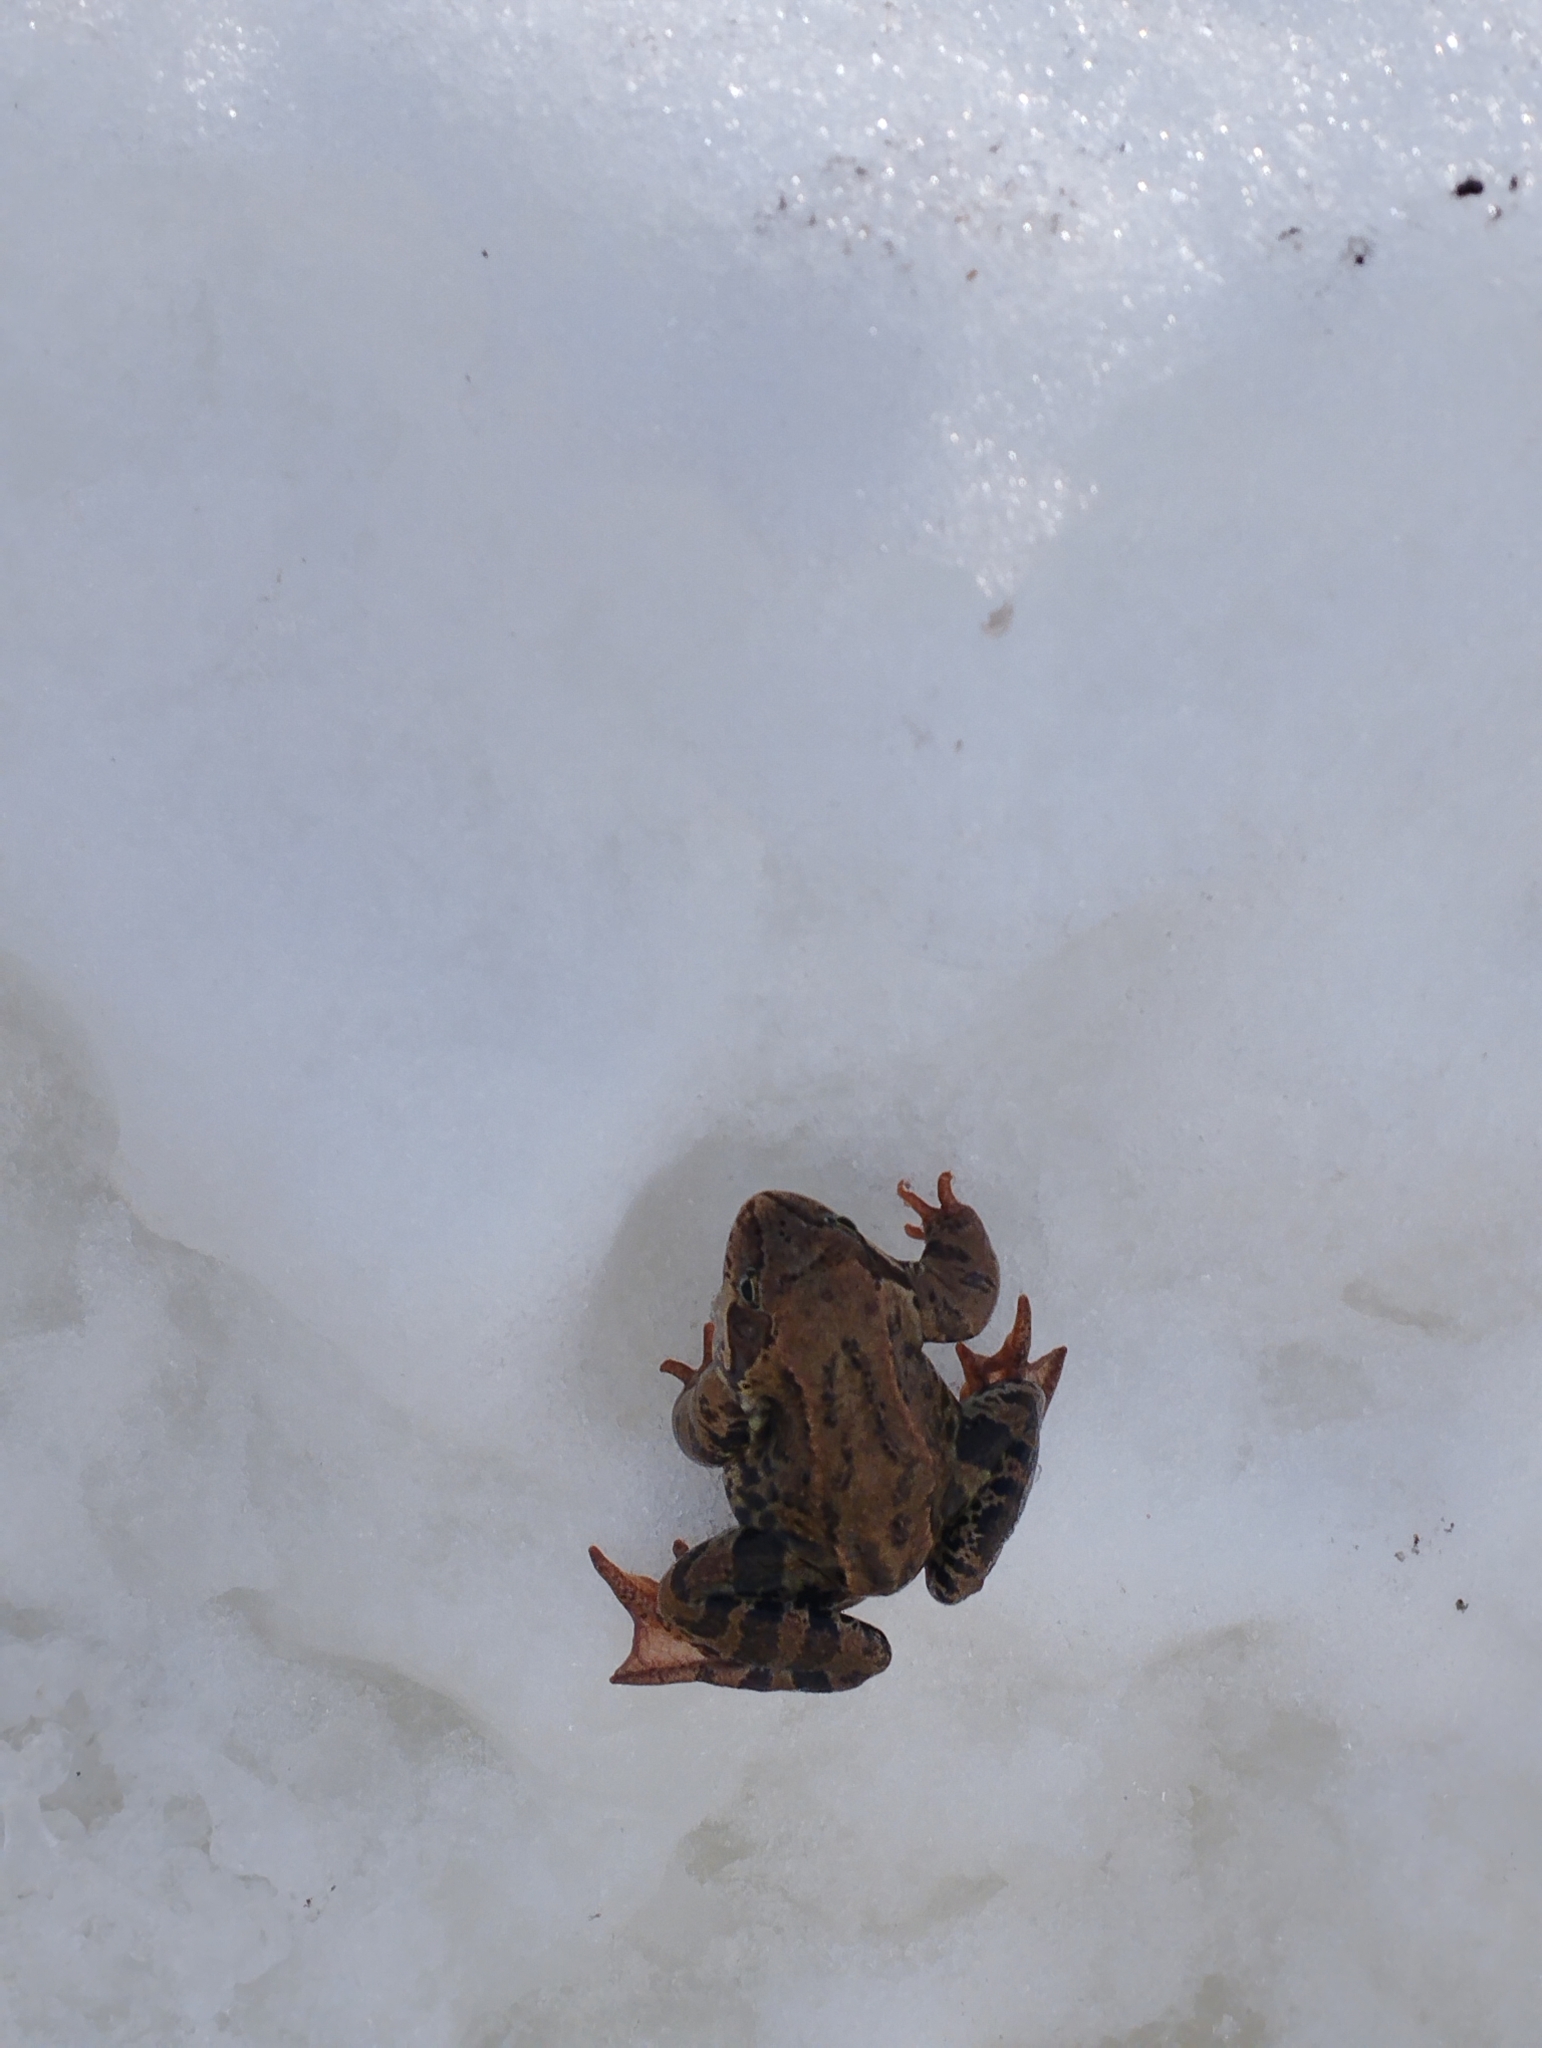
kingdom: Animalia
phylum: Chordata
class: Amphibia
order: Anura
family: Ranidae
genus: Rana
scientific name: Rana temporaria
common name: Common frog
